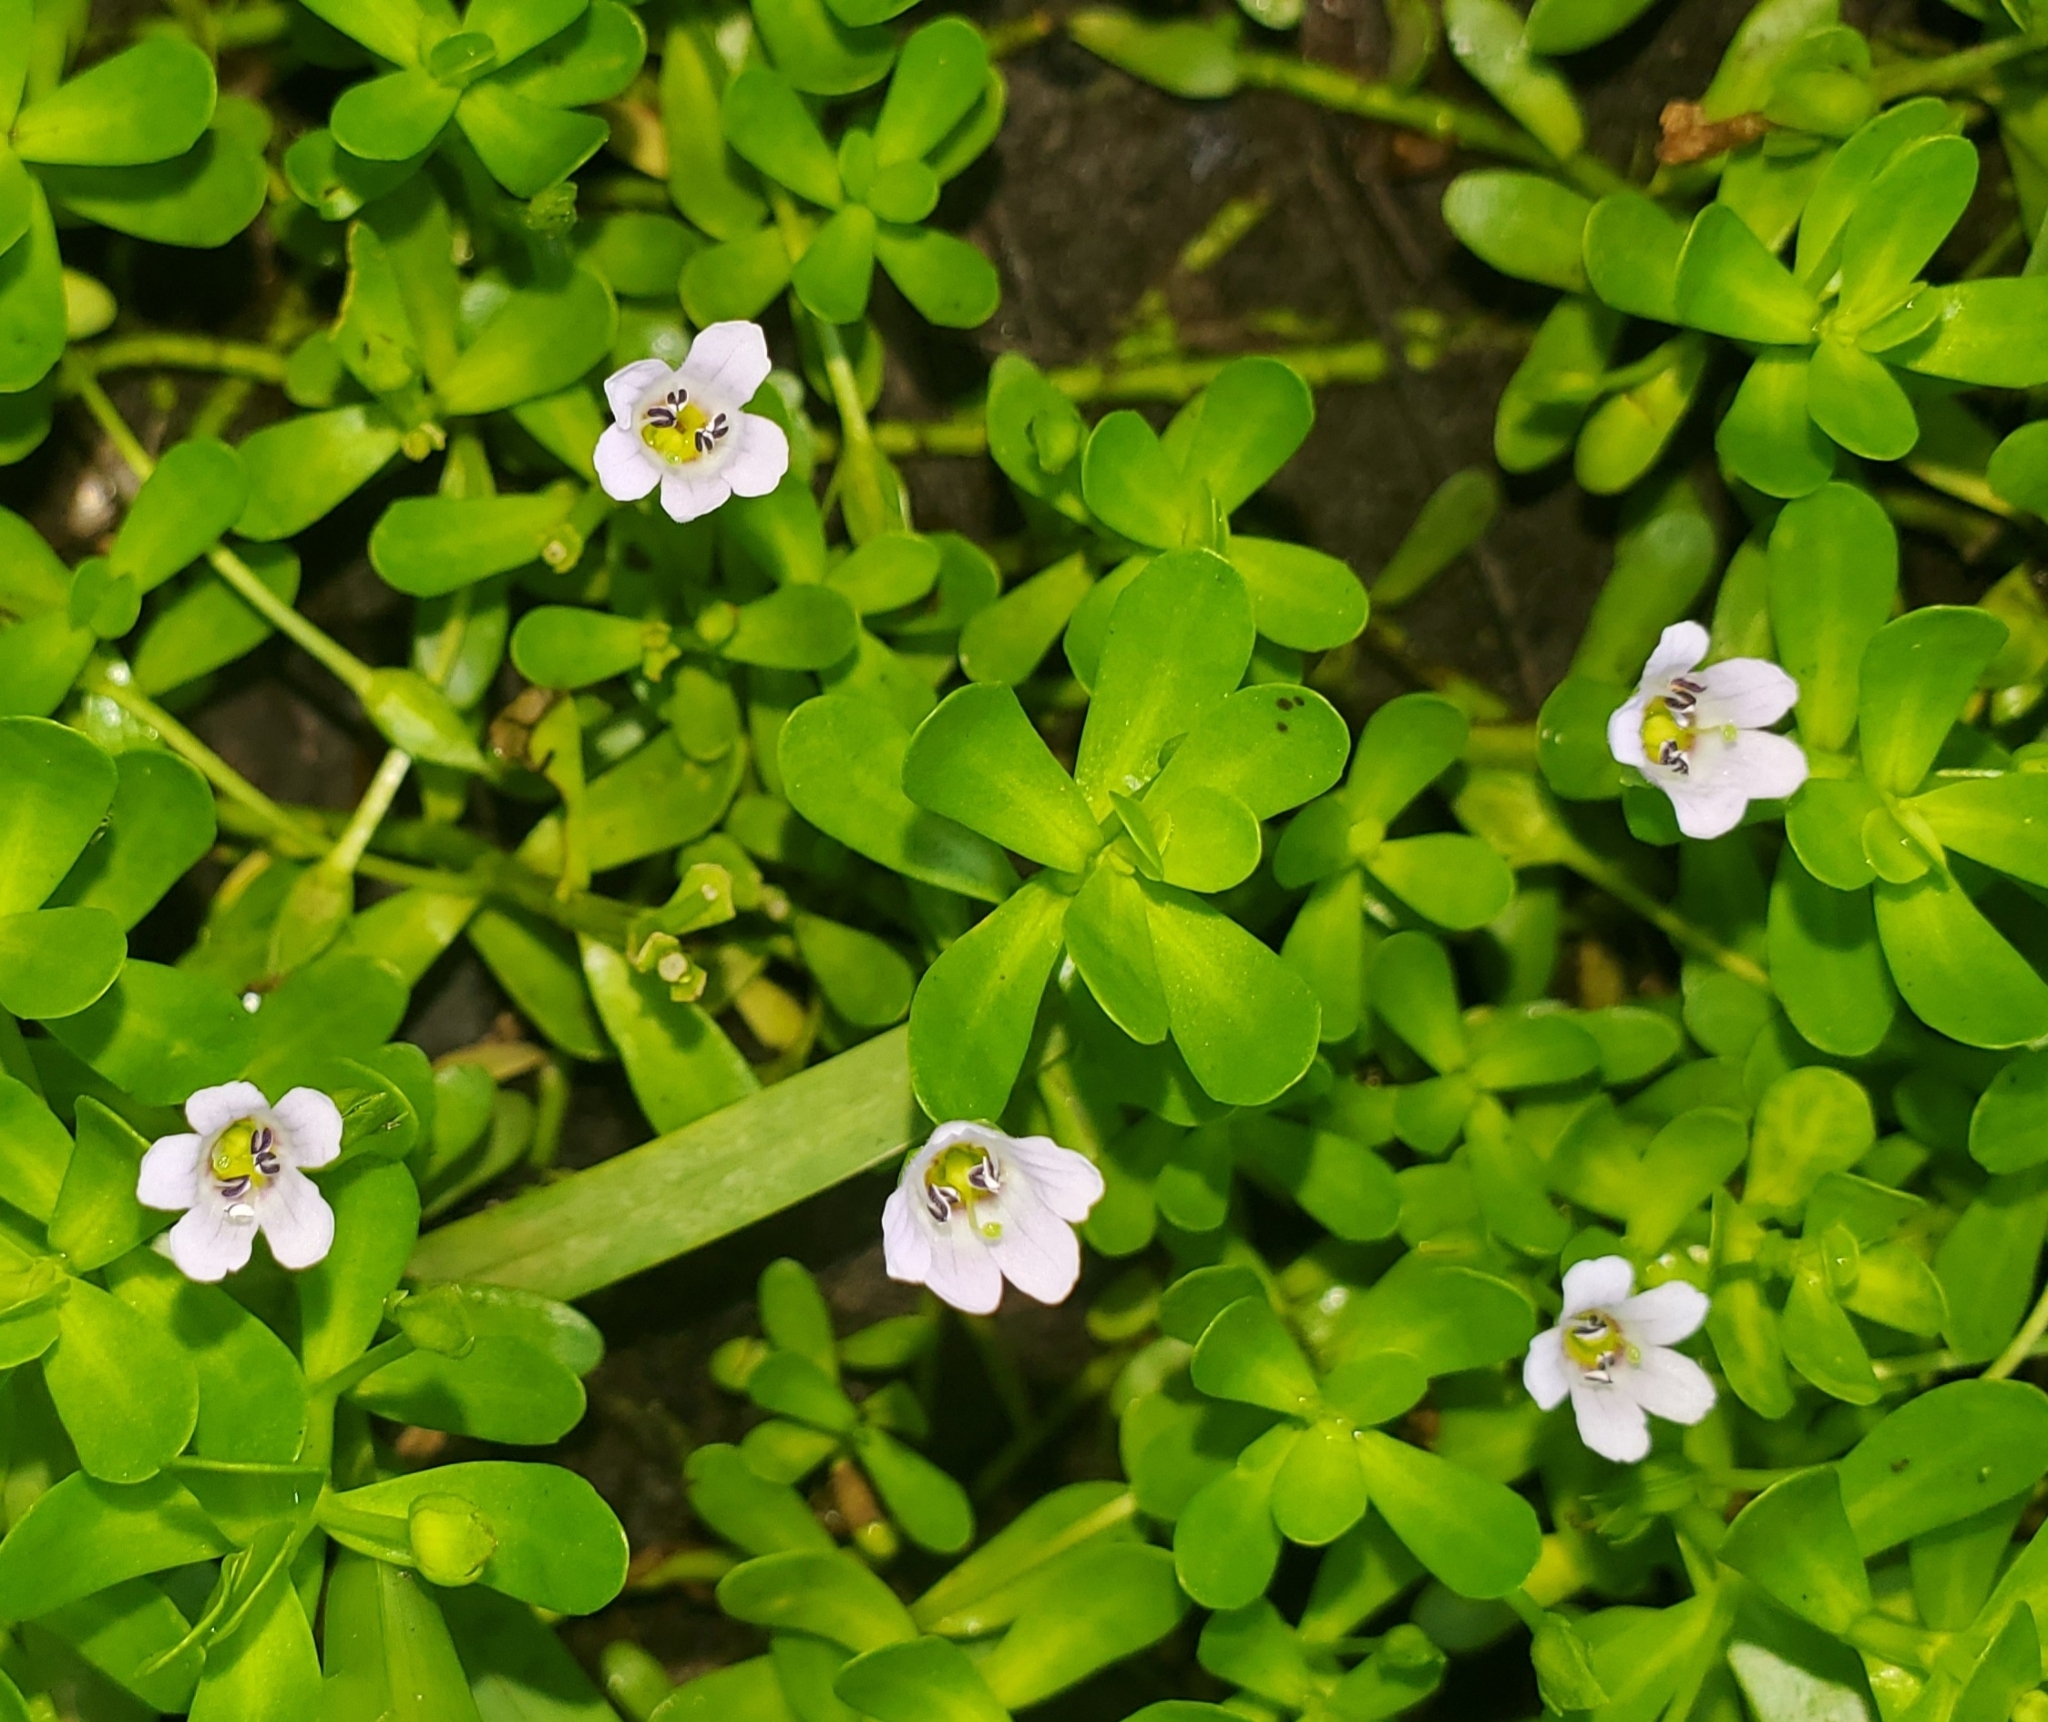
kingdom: Plantae
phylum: Tracheophyta
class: Magnoliopsida
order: Lamiales
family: Plantaginaceae
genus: Bacopa
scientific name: Bacopa monnieri
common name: Indian-pennywort
